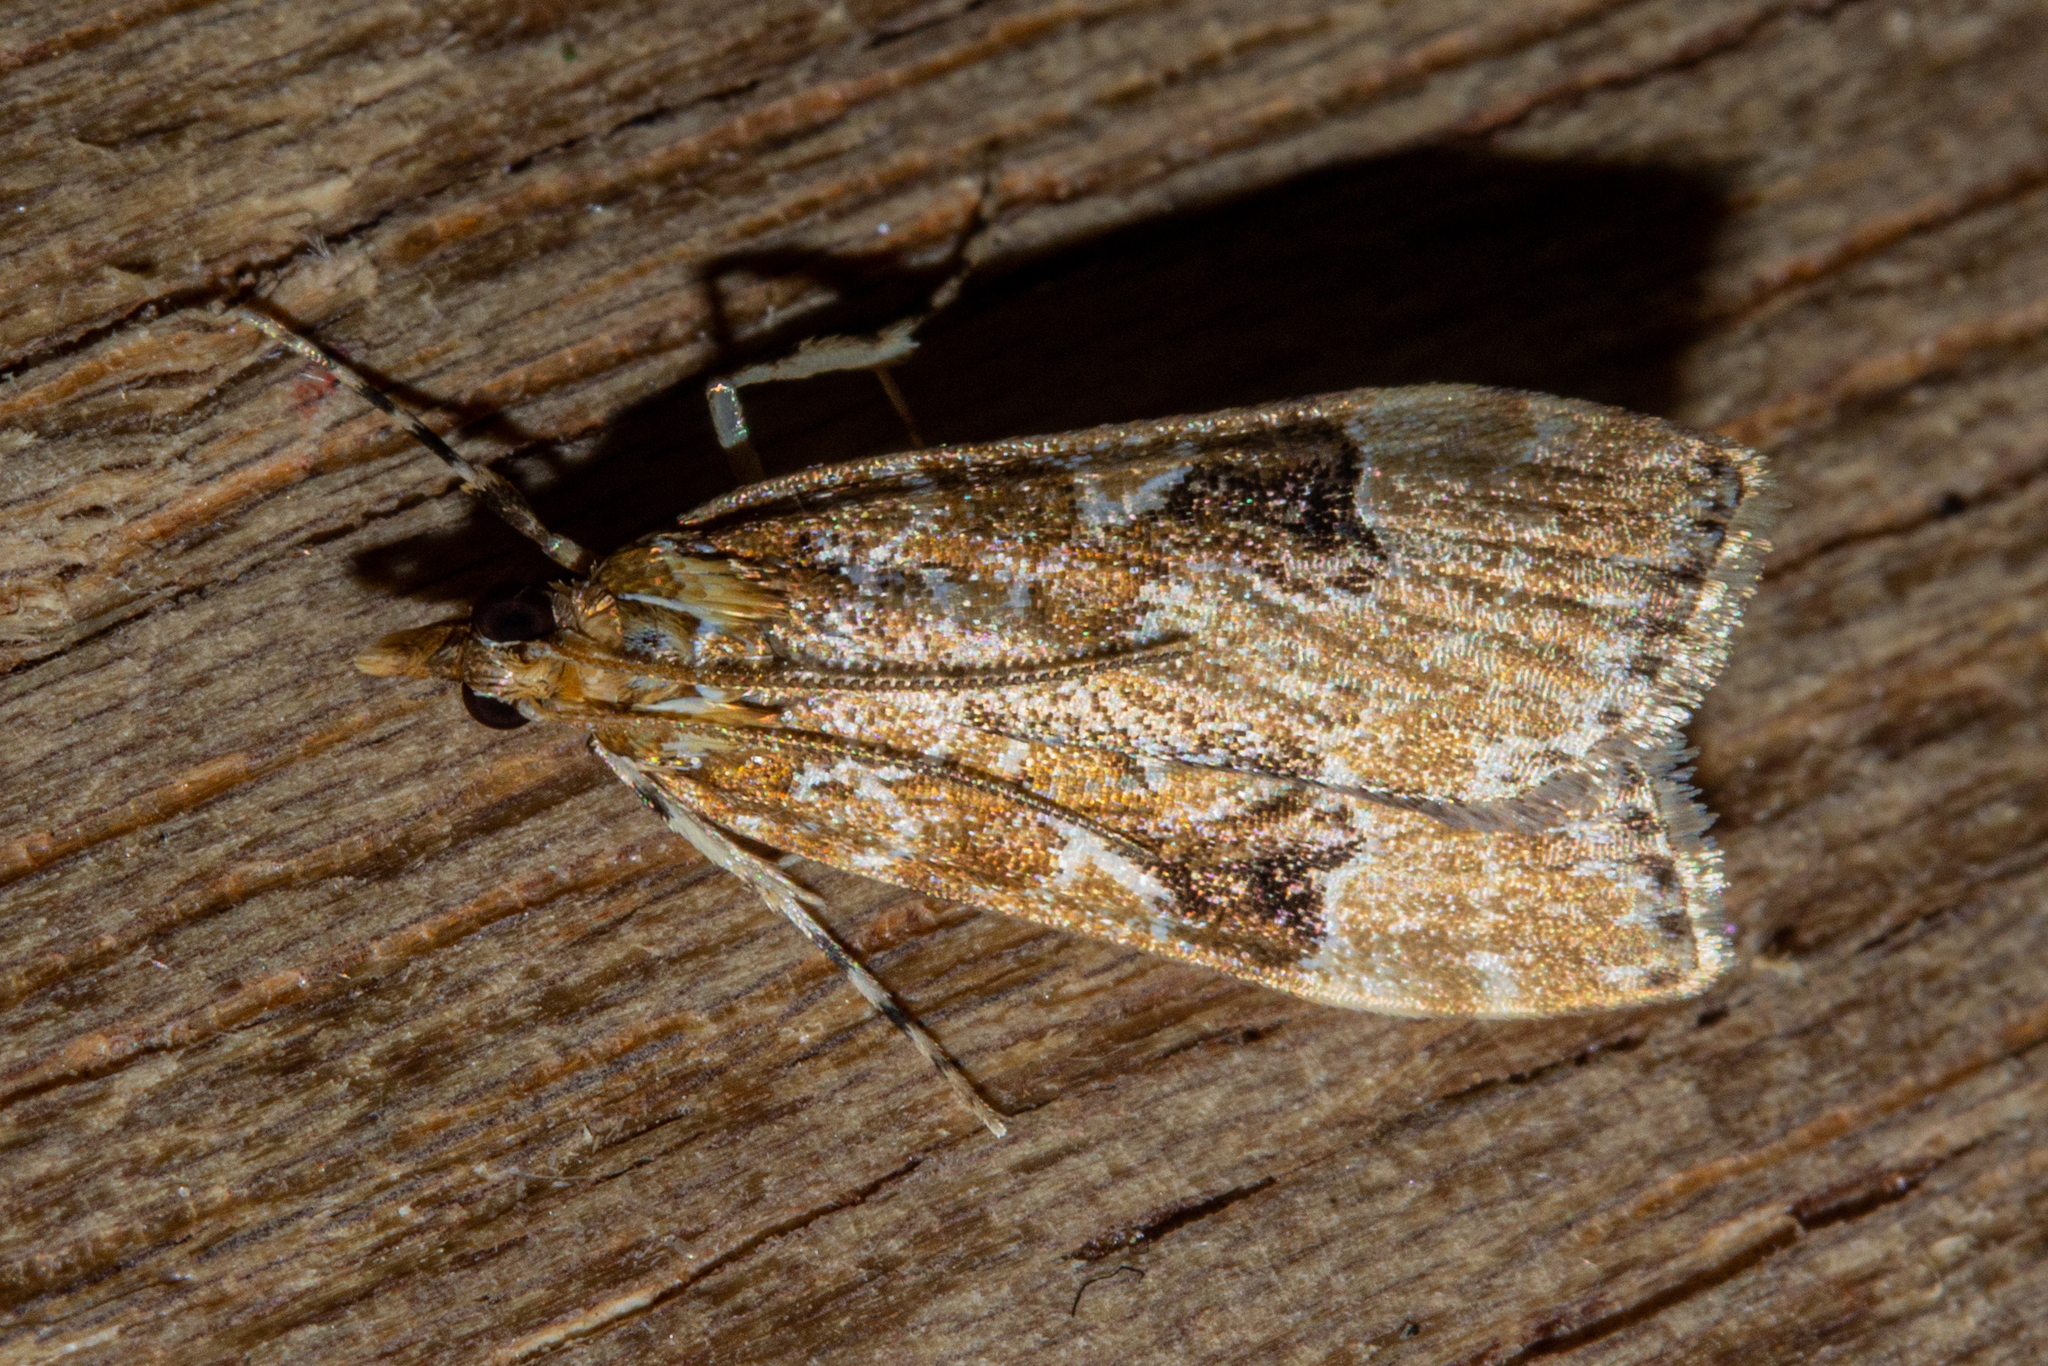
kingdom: Animalia
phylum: Arthropoda
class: Insecta
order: Lepidoptera
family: Crambidae
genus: Scoparia
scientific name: Scoparia ustimacula
